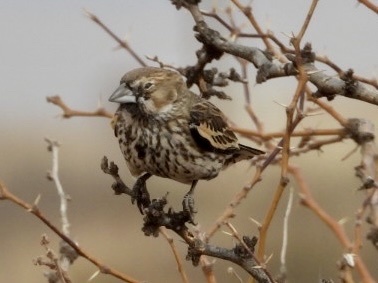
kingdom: Animalia
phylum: Chordata
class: Aves
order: Passeriformes
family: Passerellidae
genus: Calamospiza
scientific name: Calamospiza melanocorys
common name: Lark bunting
